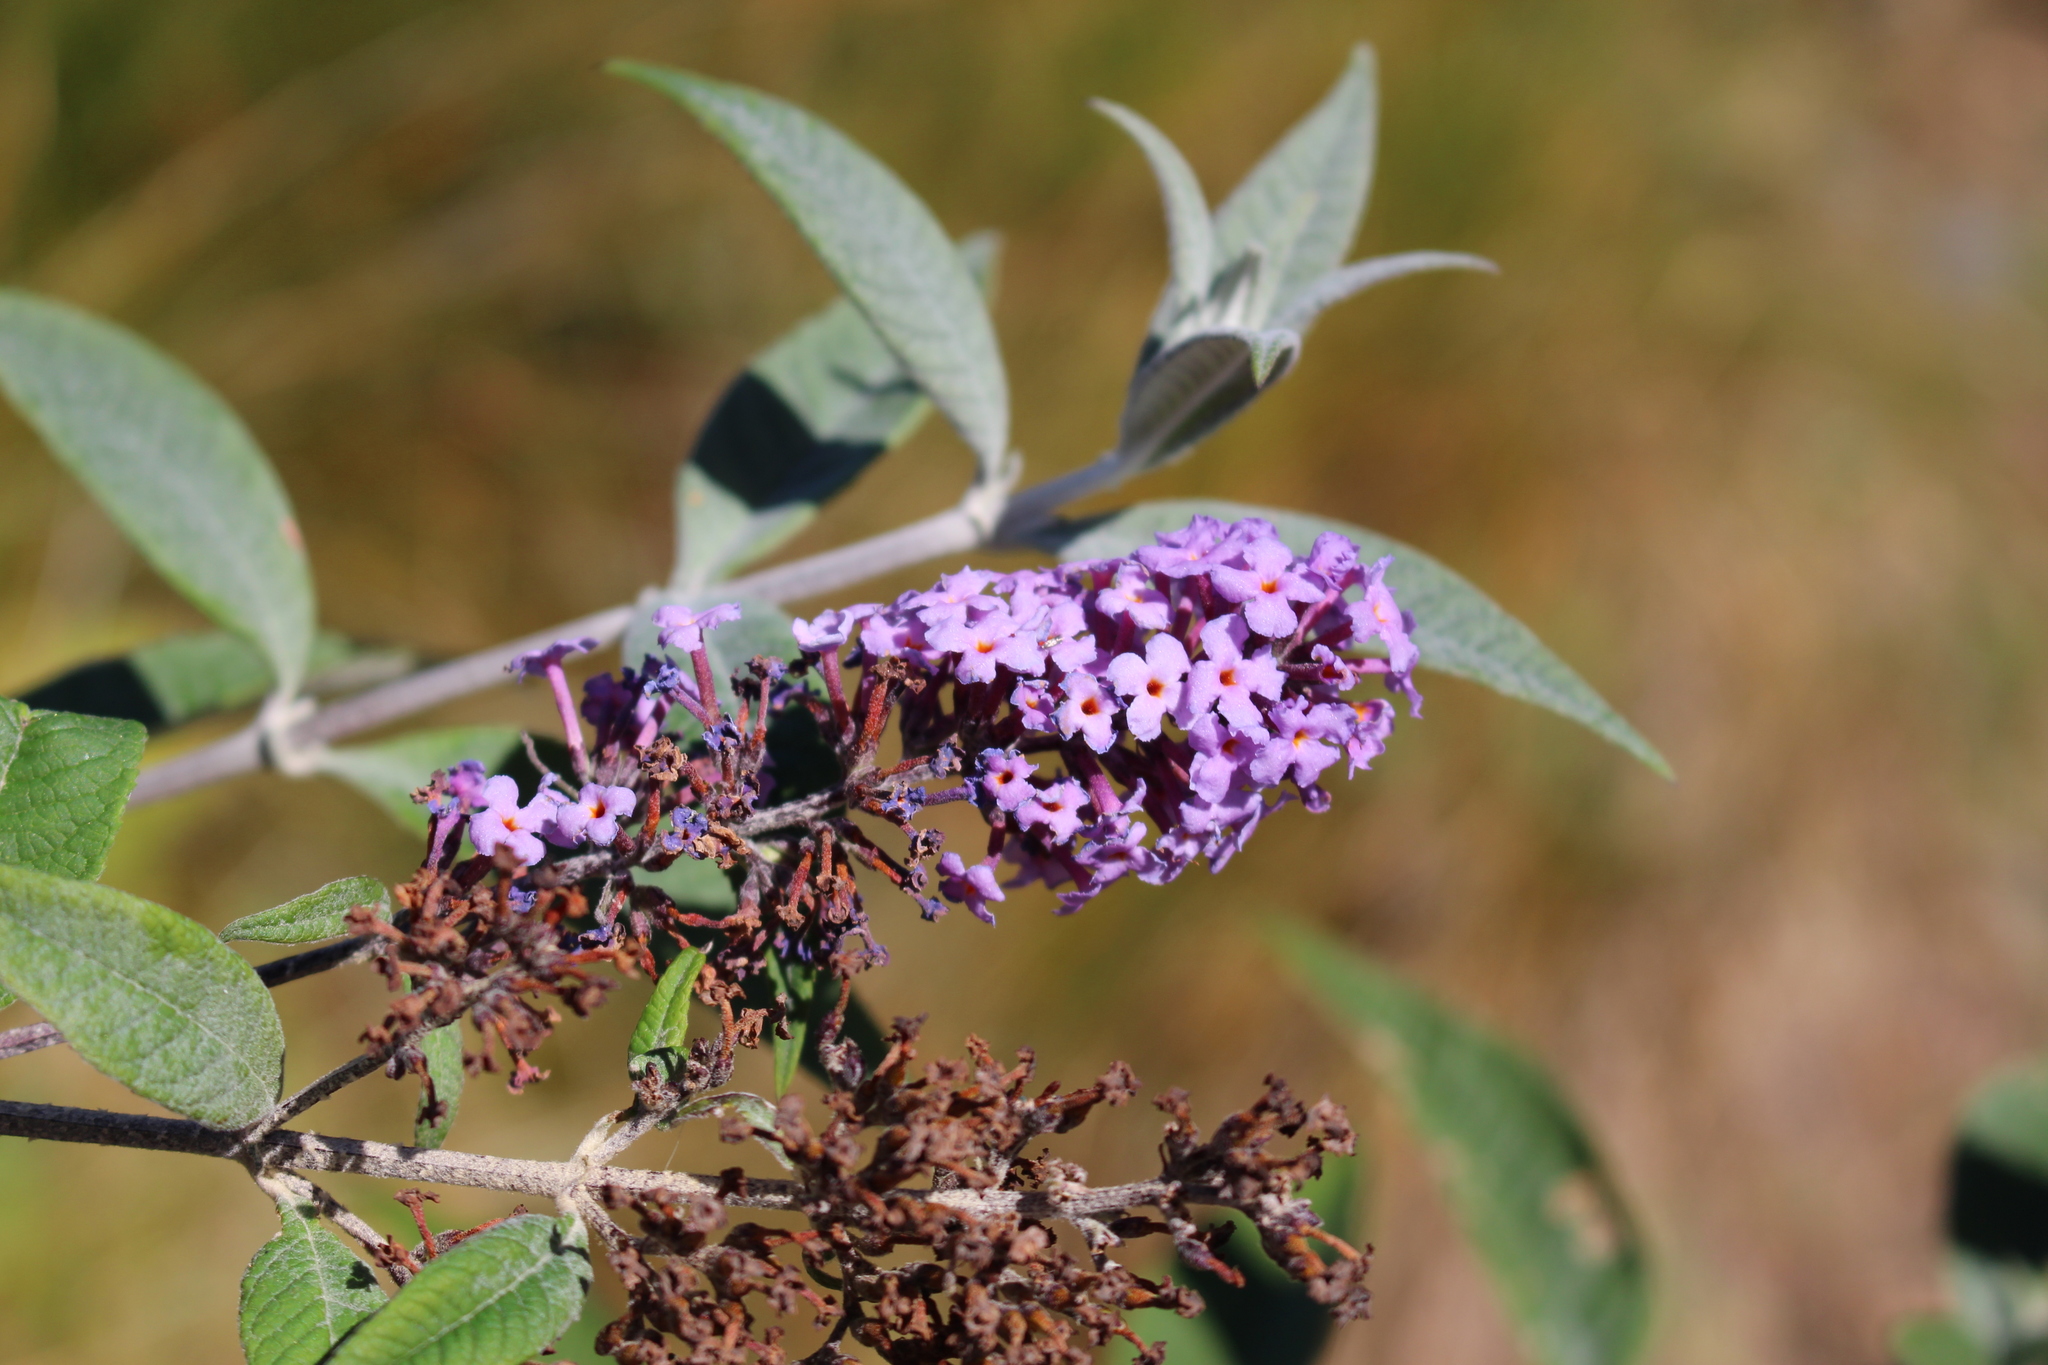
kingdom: Plantae
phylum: Tracheophyta
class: Magnoliopsida
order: Lamiales
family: Scrophulariaceae
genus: Buddleja
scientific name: Buddleja davidii
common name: Butterfly-bush
